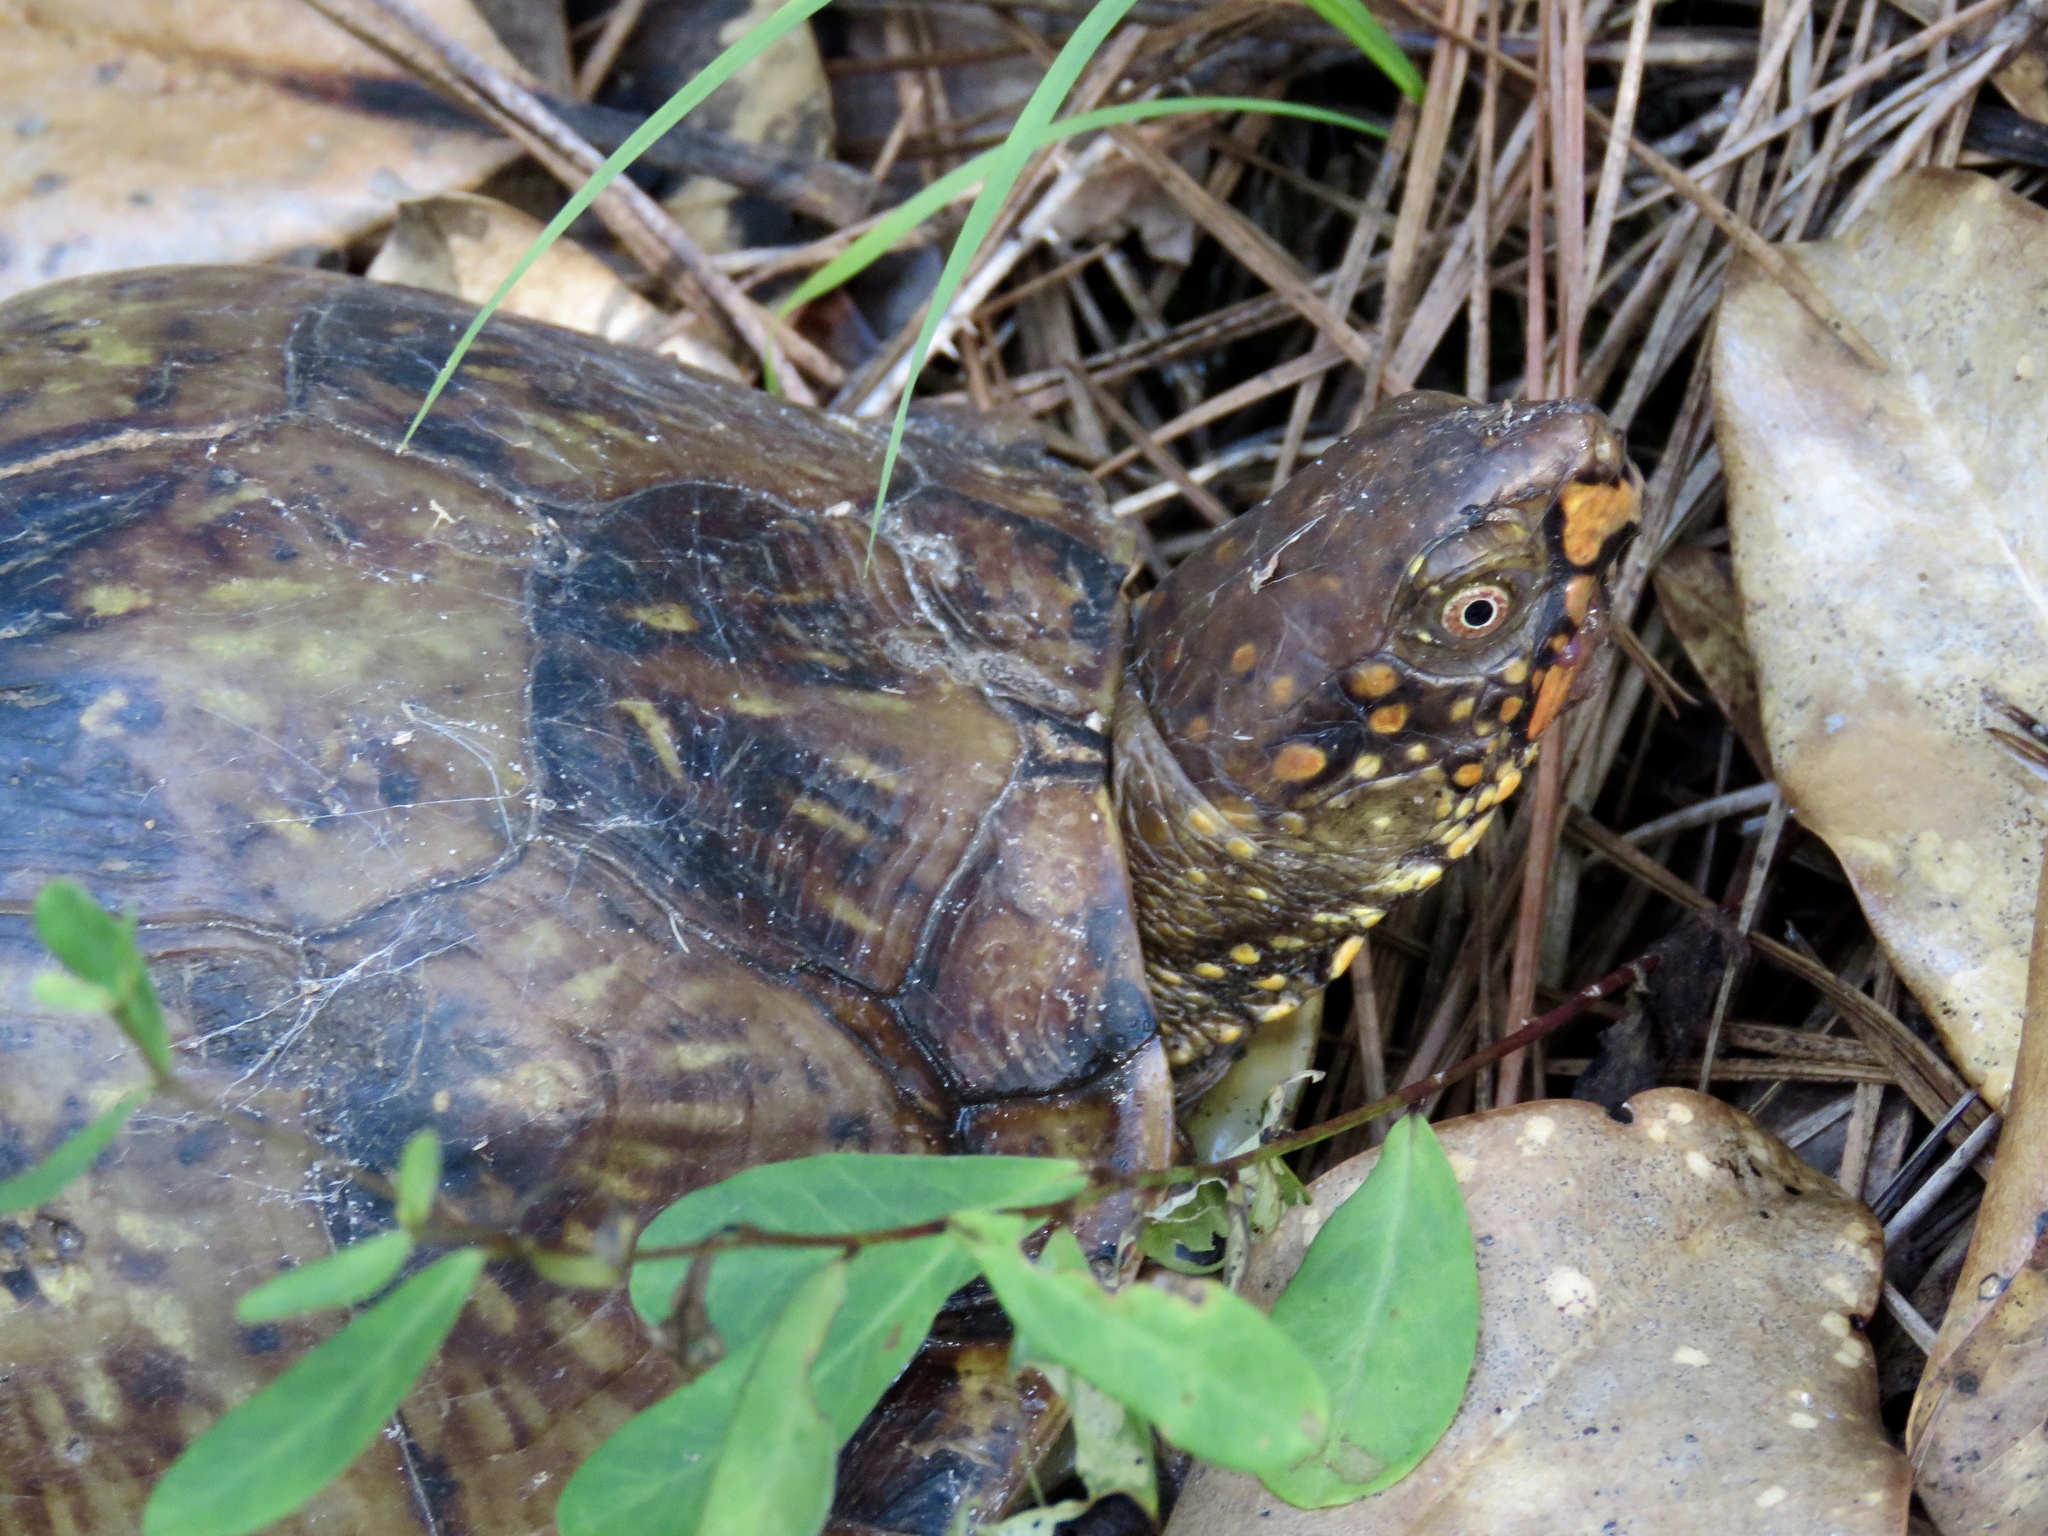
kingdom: Animalia
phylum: Chordata
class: Testudines
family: Emydidae
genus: Terrapene
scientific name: Terrapene carolina
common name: Common box turtle
